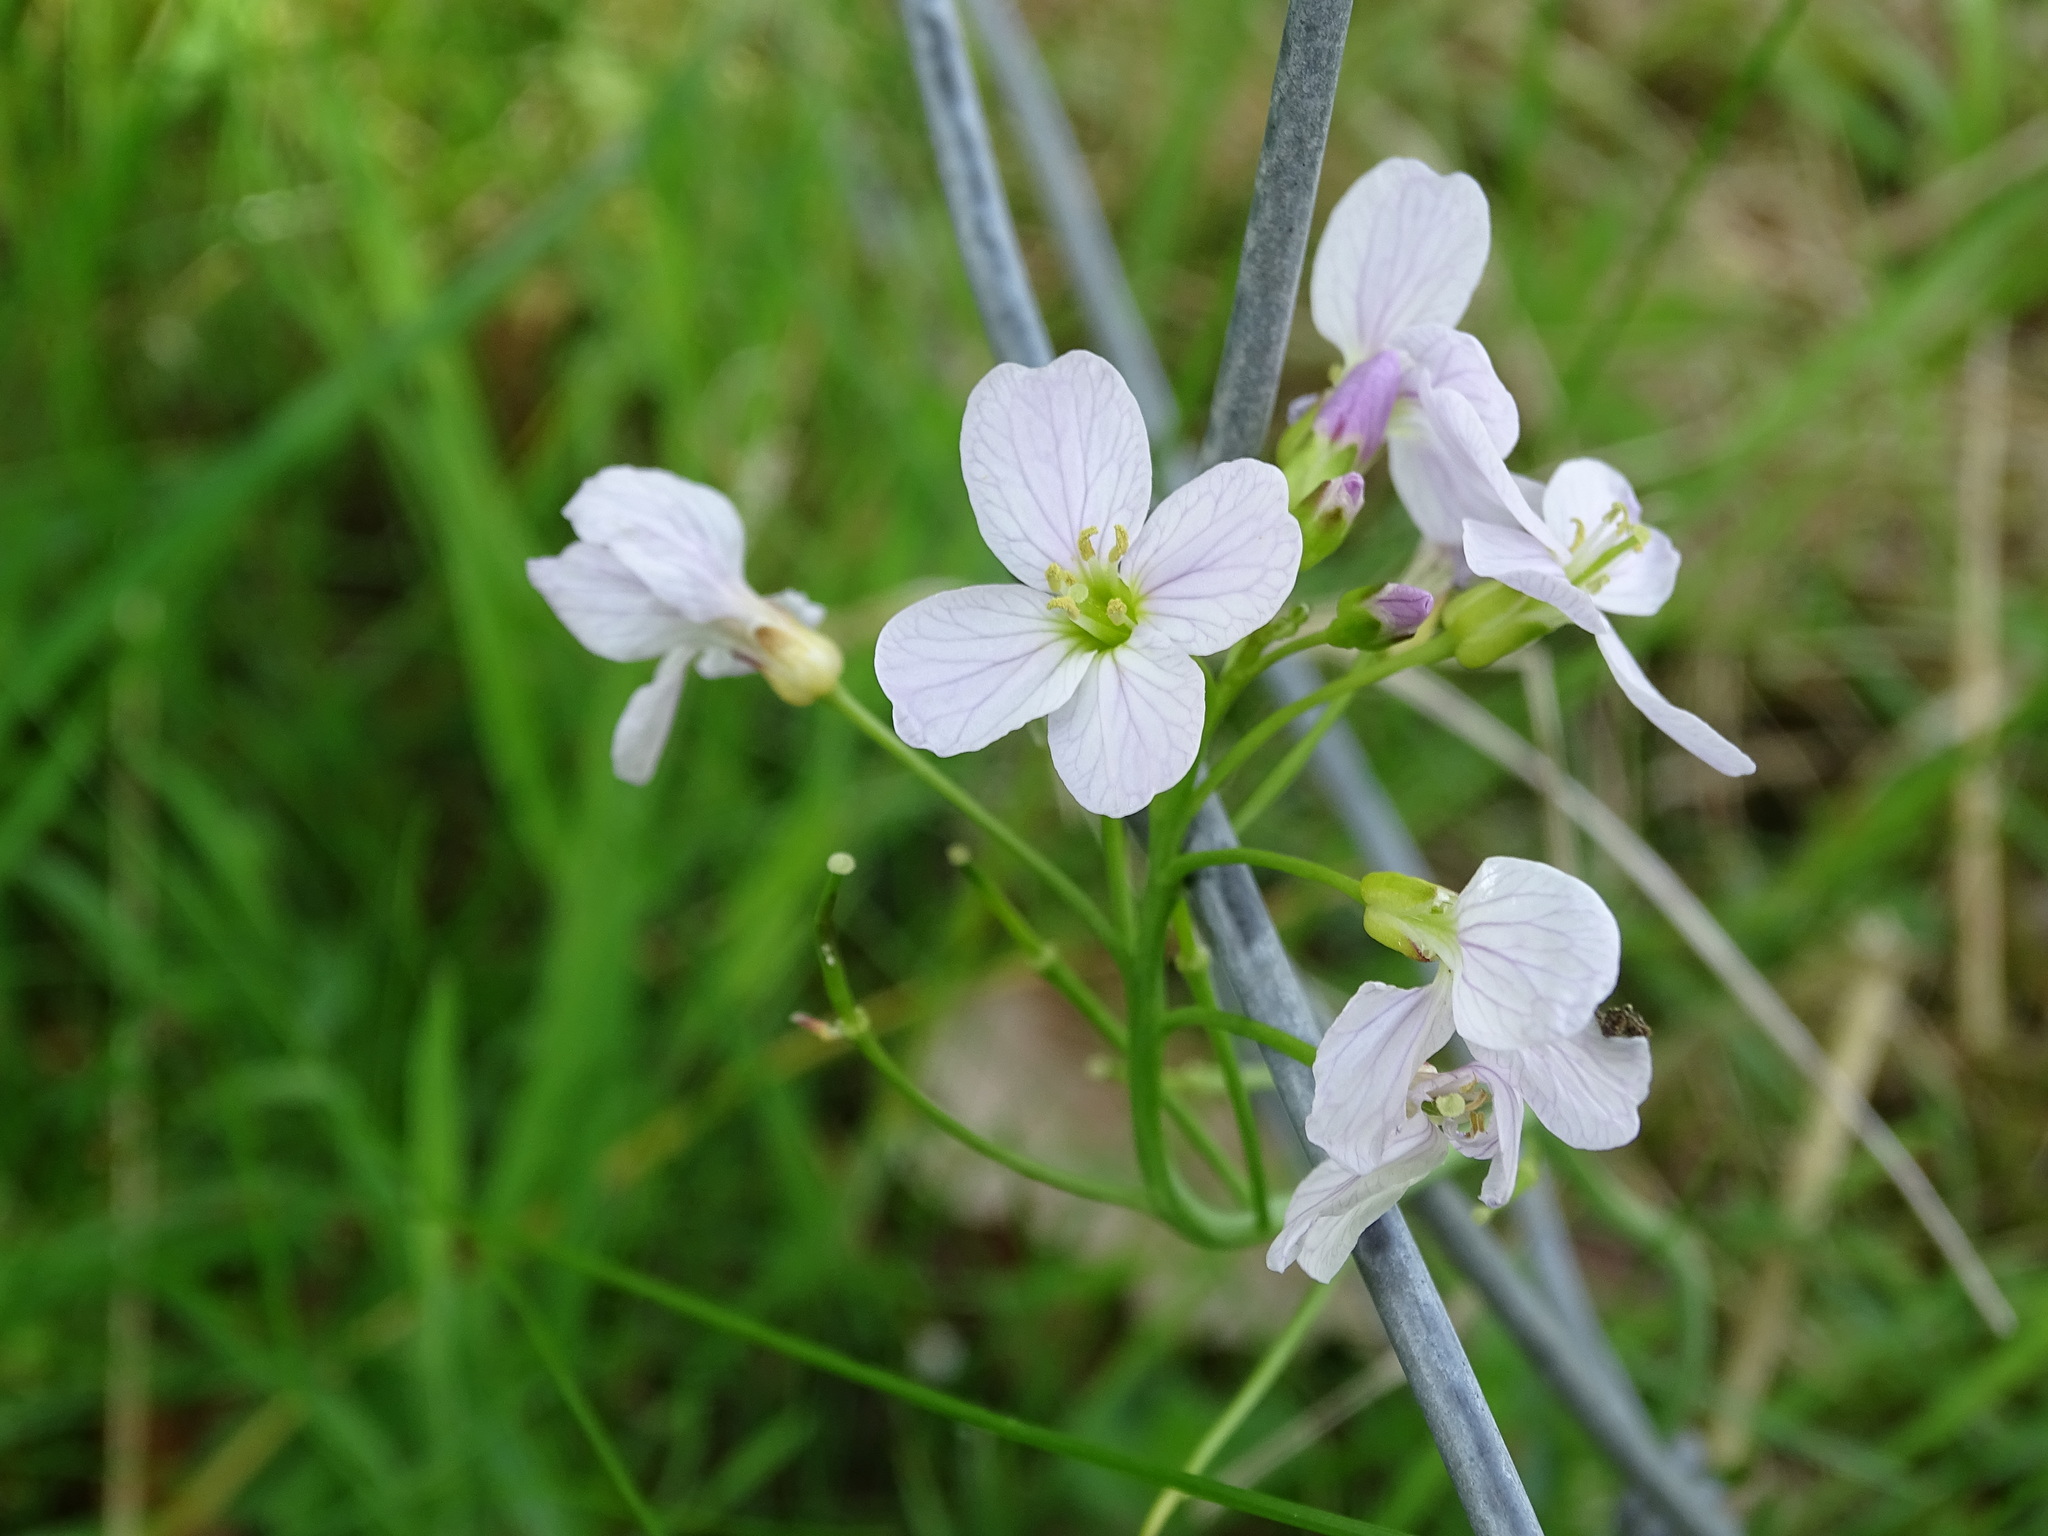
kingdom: Plantae
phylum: Tracheophyta
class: Magnoliopsida
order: Brassicales
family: Brassicaceae
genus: Cardamine
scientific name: Cardamine pratensis
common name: Cuckoo flower
